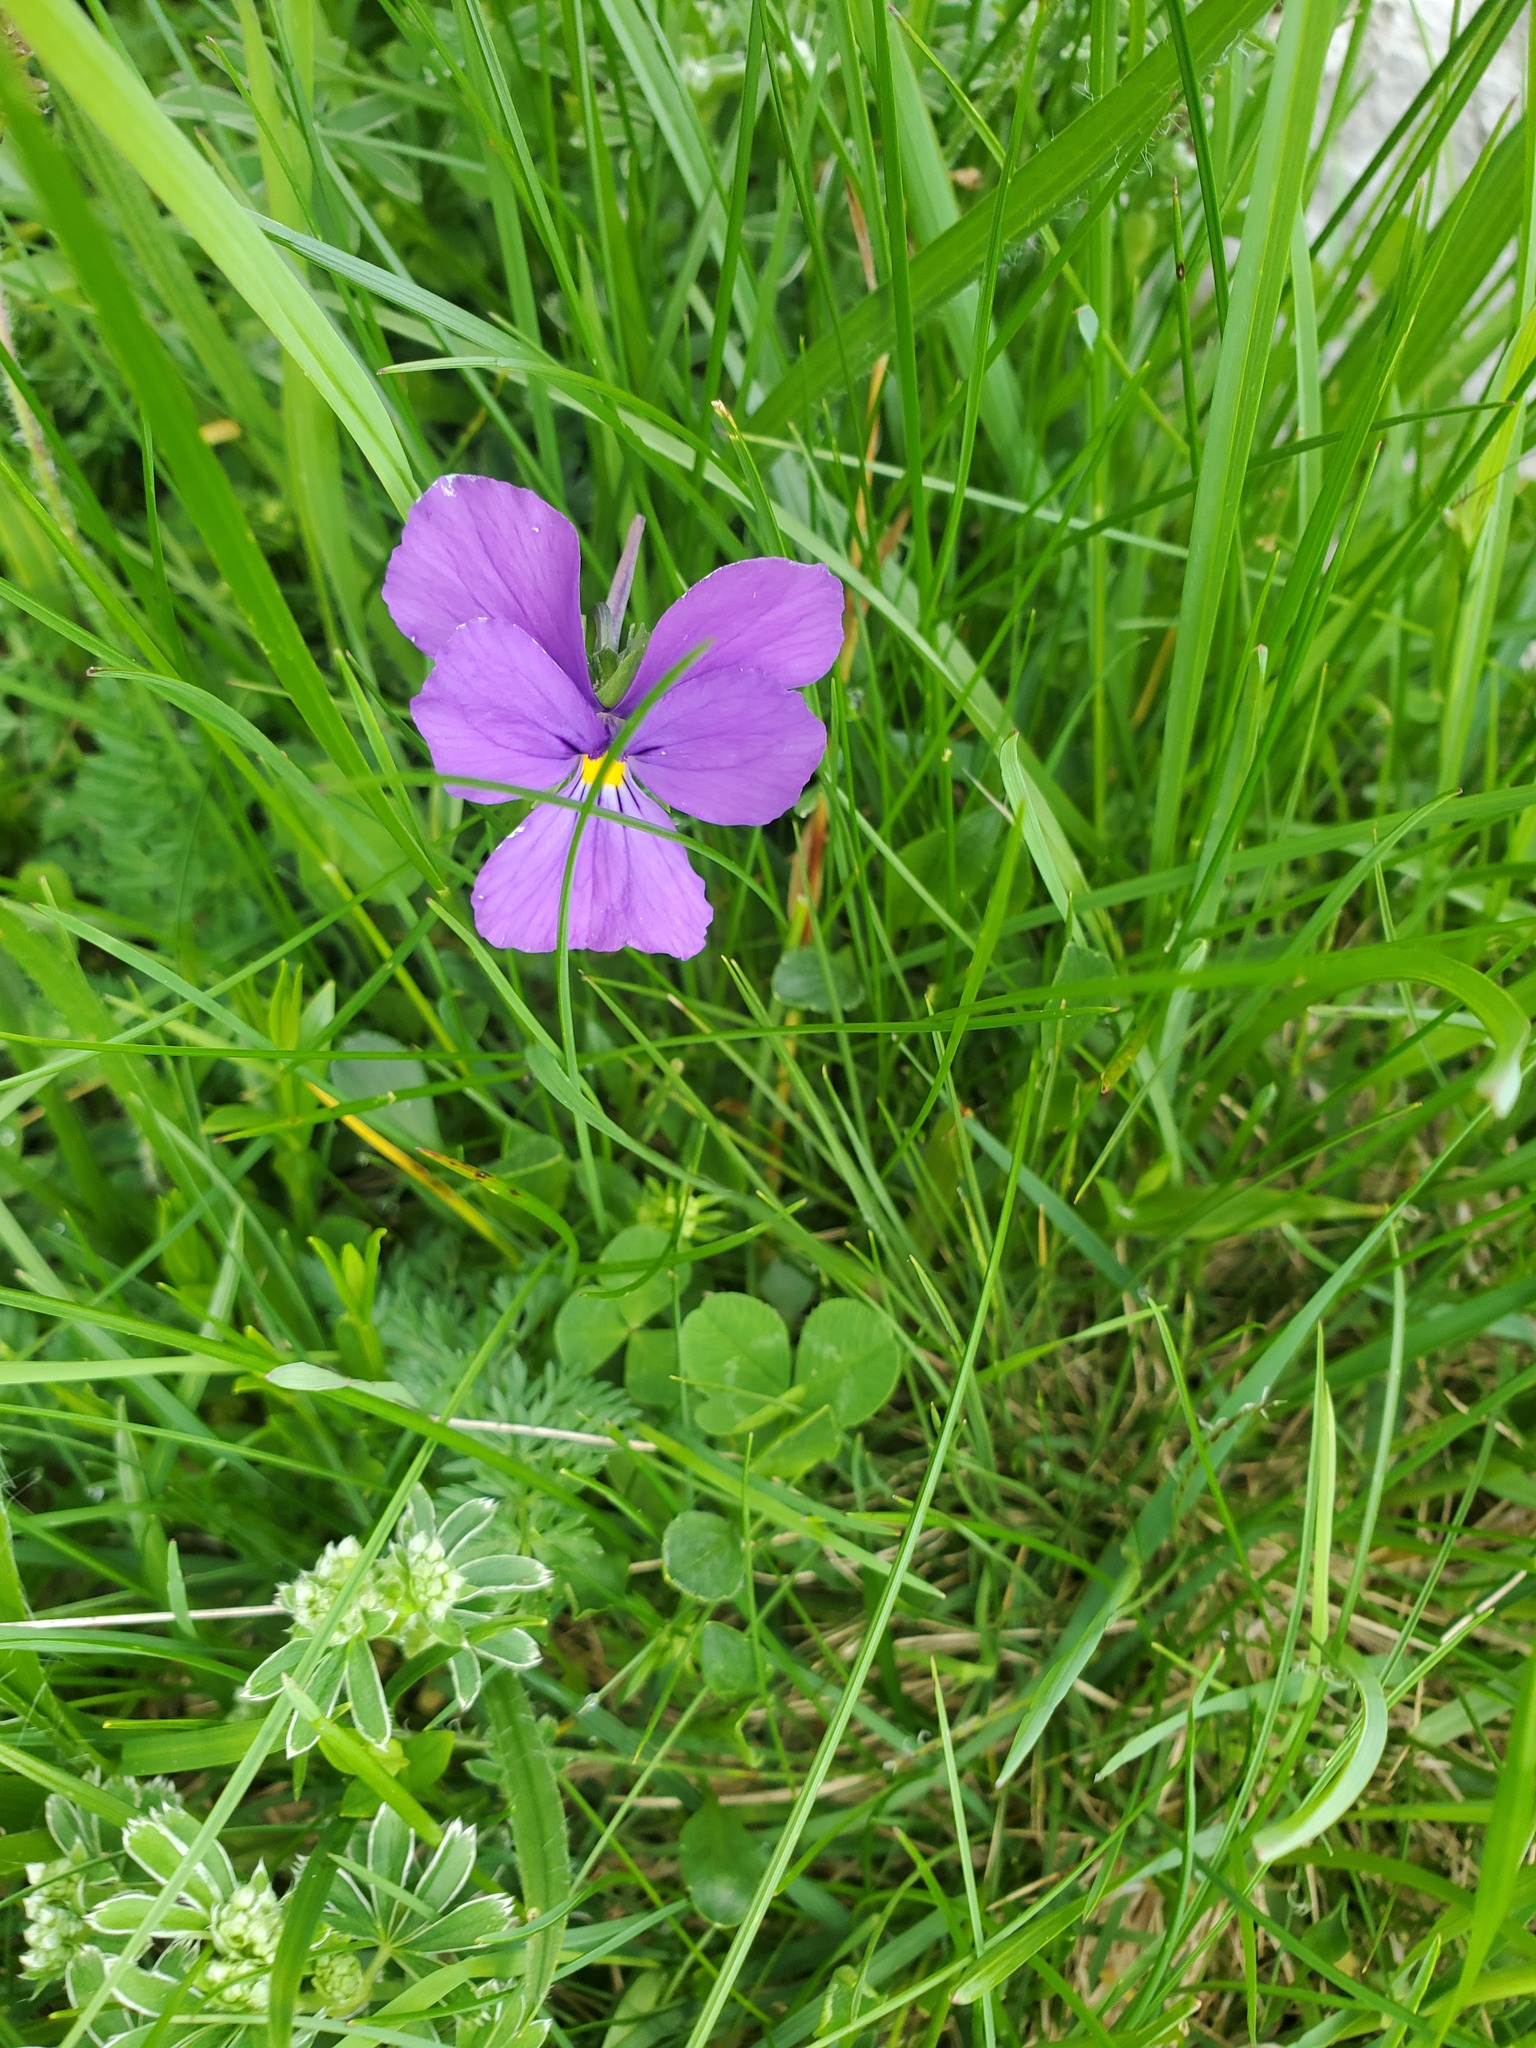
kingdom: Plantae
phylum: Tracheophyta
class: Magnoliopsida
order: Malpighiales
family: Violaceae
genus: Viola
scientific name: Viola calcarata
